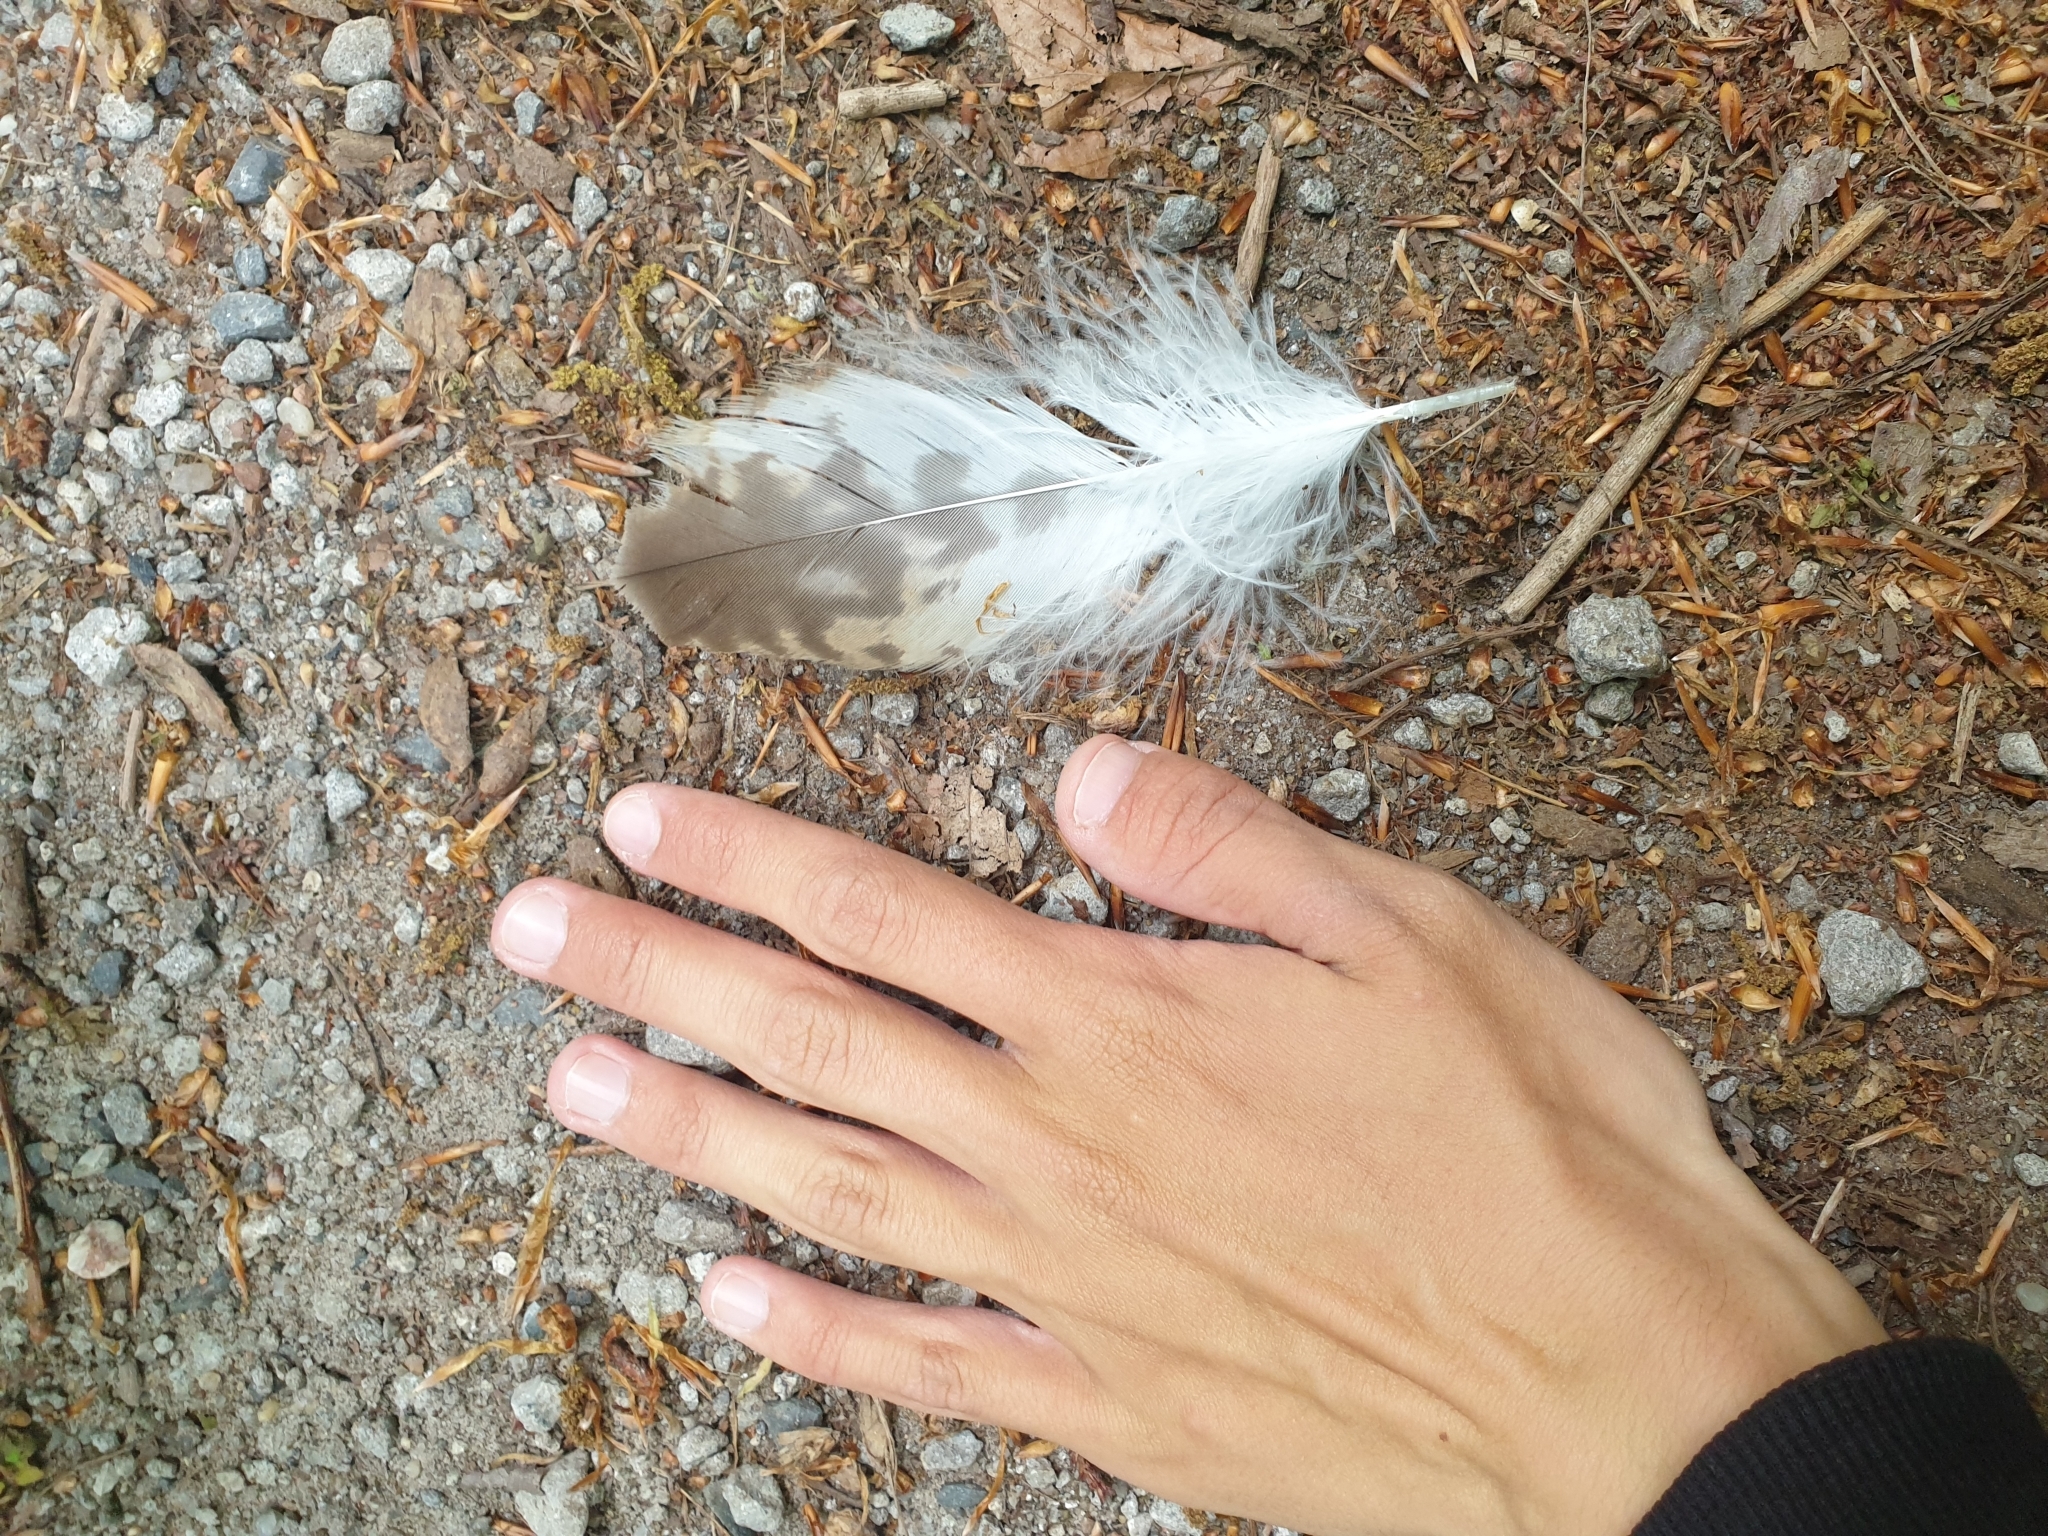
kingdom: Animalia
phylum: Chordata
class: Aves
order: Accipitriformes
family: Accipitridae
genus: Buteo
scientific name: Buteo buteo
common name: Common buzzard
